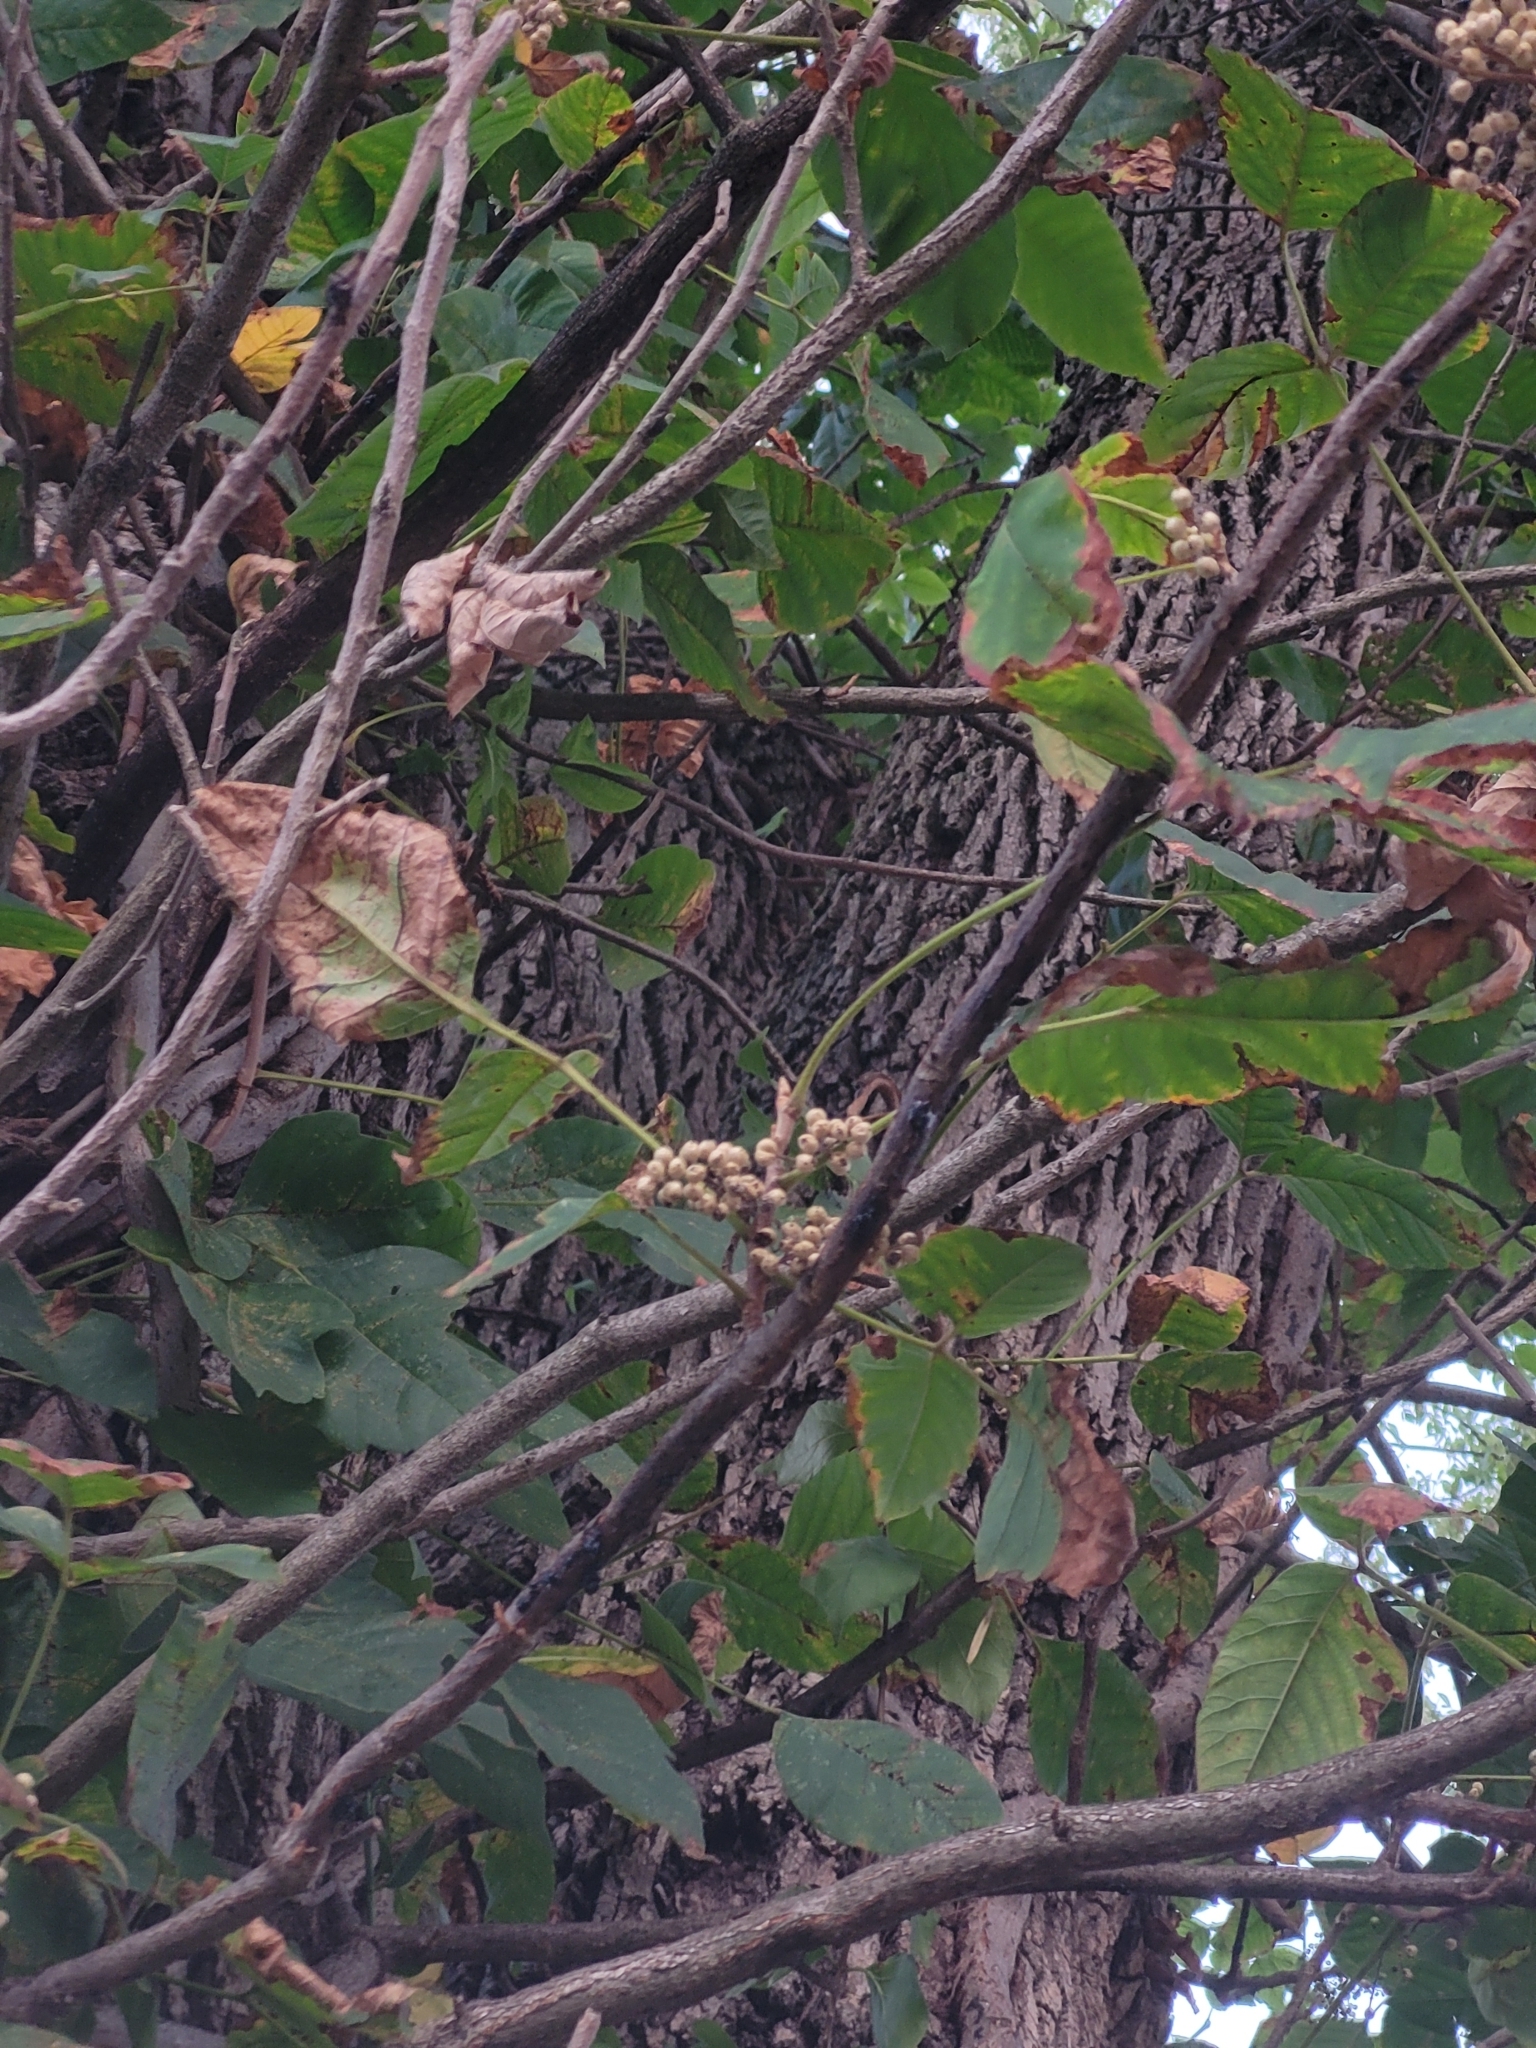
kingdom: Plantae
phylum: Tracheophyta
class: Magnoliopsida
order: Sapindales
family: Anacardiaceae
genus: Toxicodendron
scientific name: Toxicodendron radicans
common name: Poison ivy
